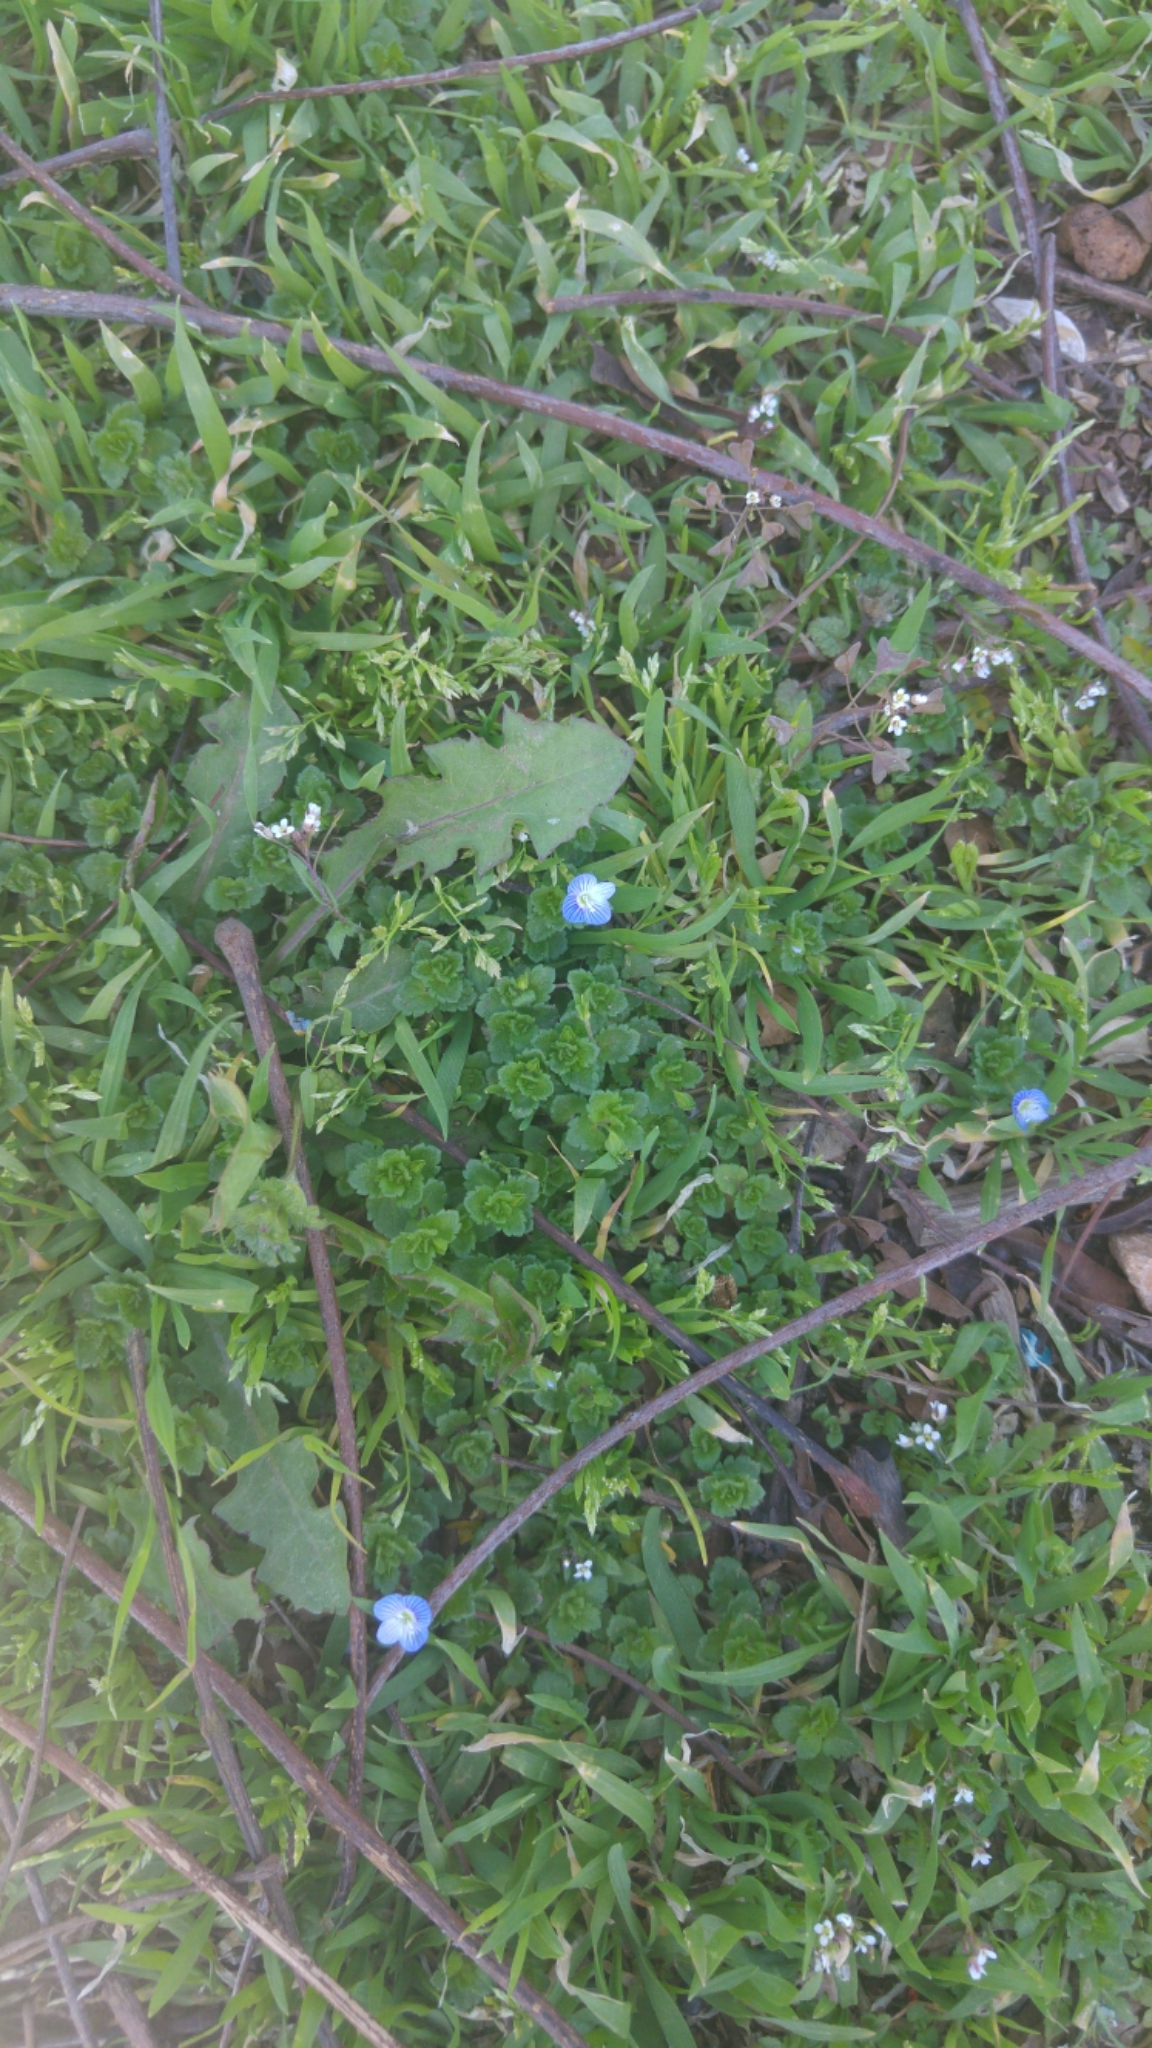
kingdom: Plantae
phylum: Tracheophyta
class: Magnoliopsida
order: Lamiales
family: Plantaginaceae
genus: Veronica
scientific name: Veronica persica
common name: Common field-speedwell
